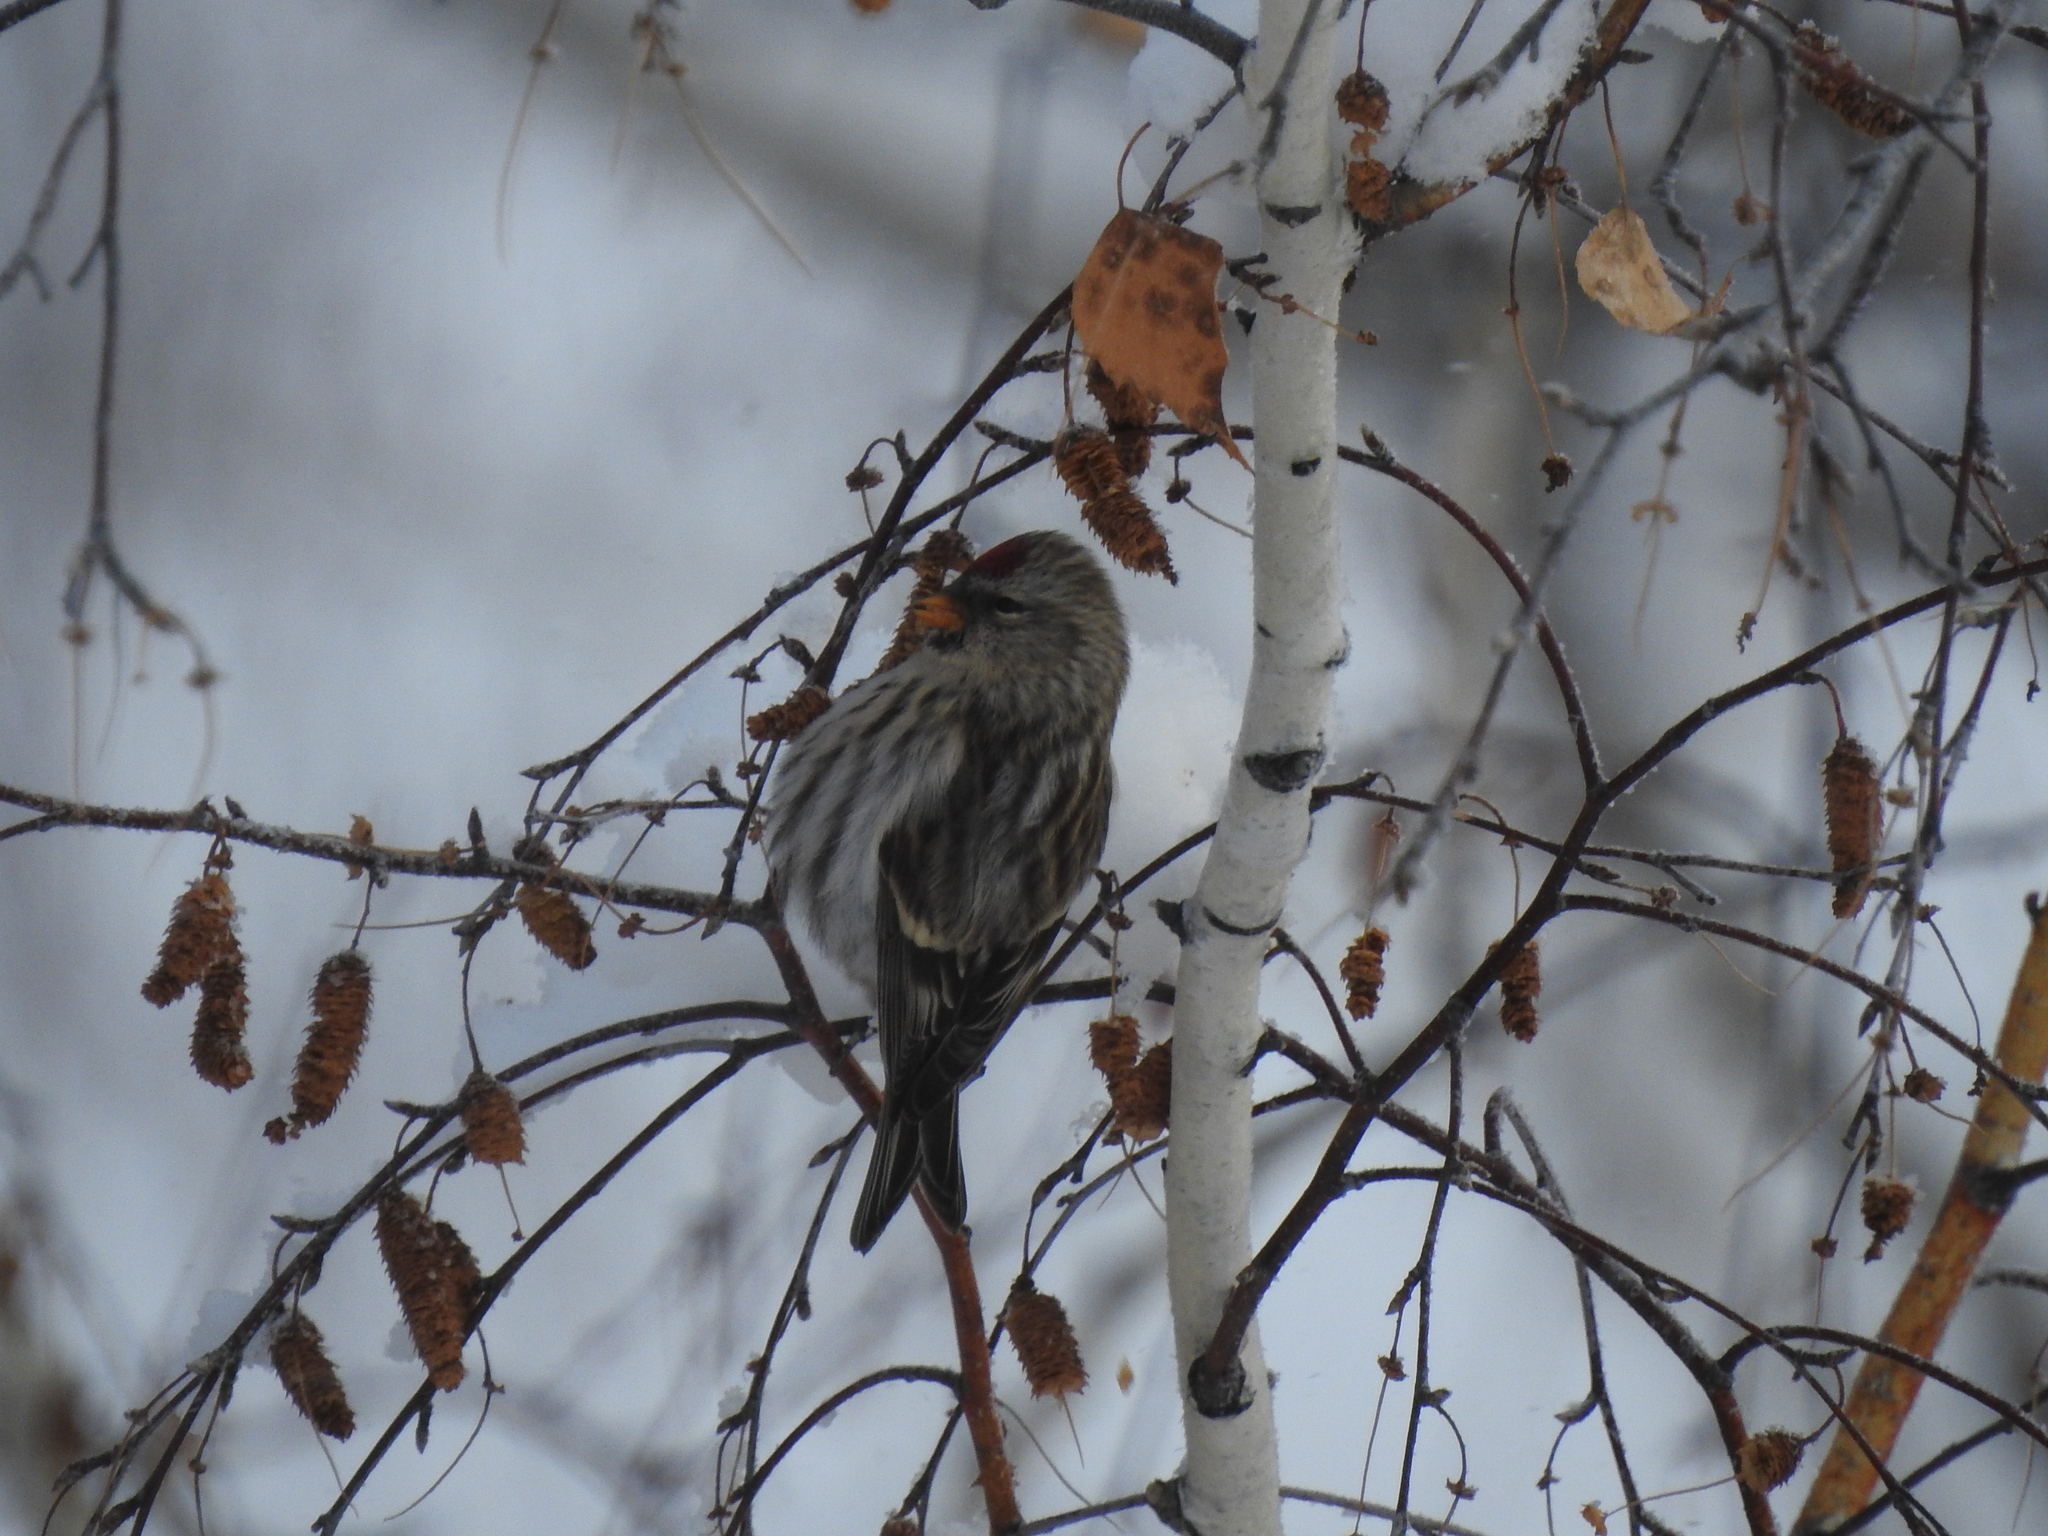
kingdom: Animalia
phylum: Chordata
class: Aves
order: Passeriformes
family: Fringillidae
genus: Acanthis
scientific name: Acanthis flammea
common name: Common redpoll
